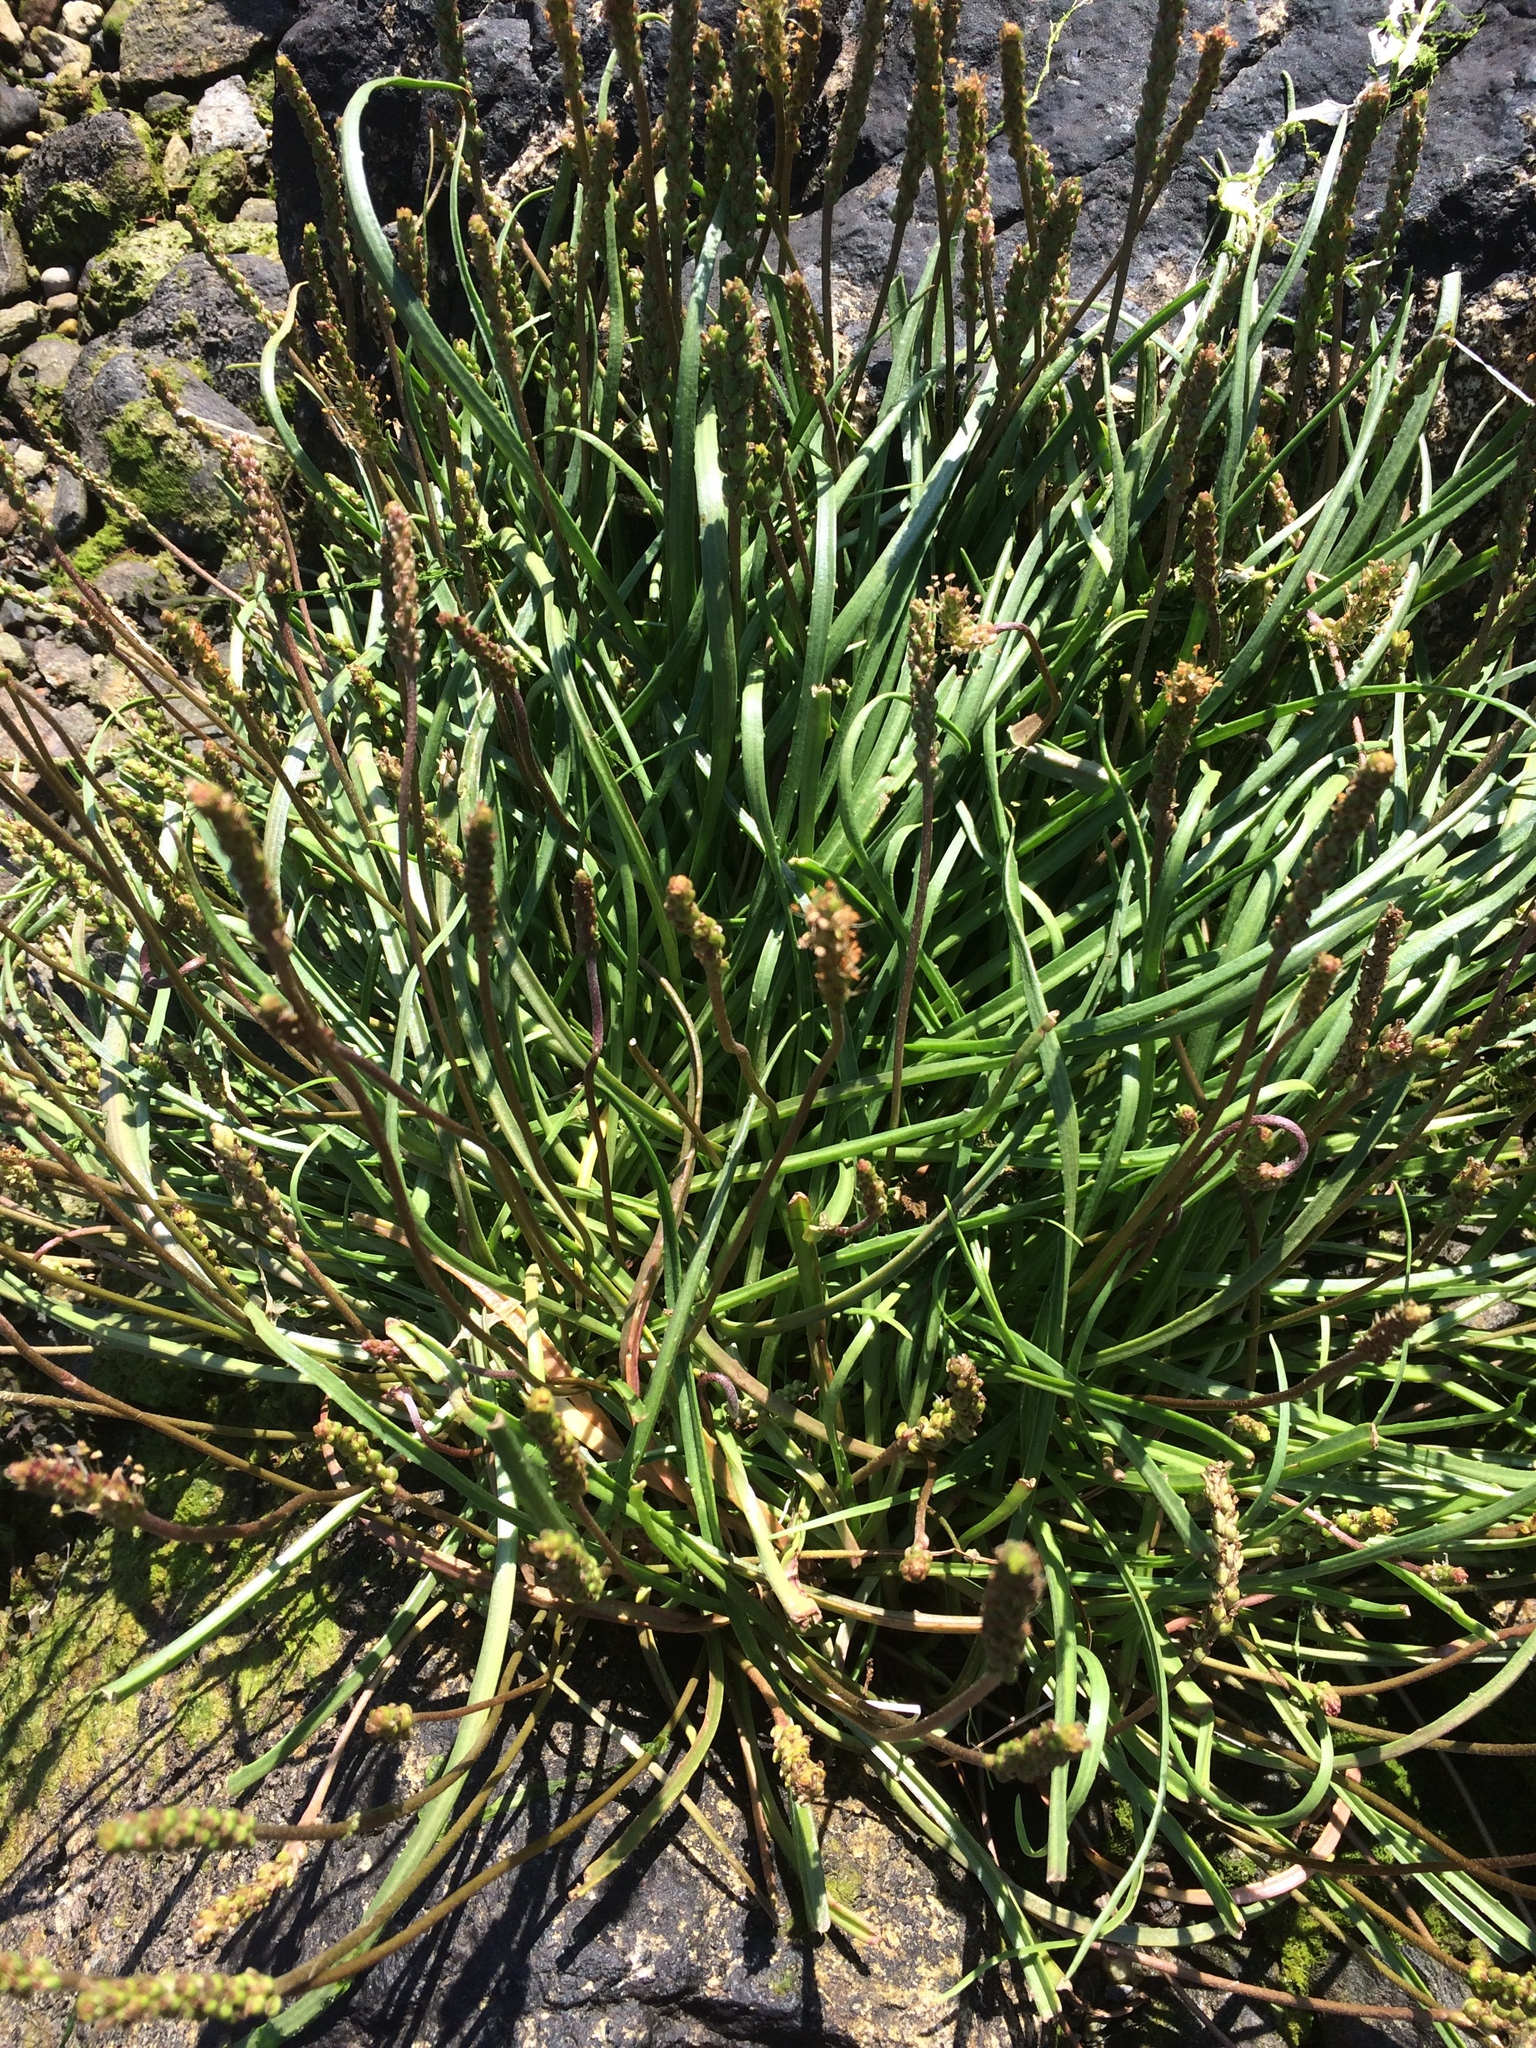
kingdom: Plantae
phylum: Tracheophyta
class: Magnoliopsida
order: Lamiales
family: Plantaginaceae
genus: Plantago
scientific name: Plantago maritima
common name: Sea plantain
